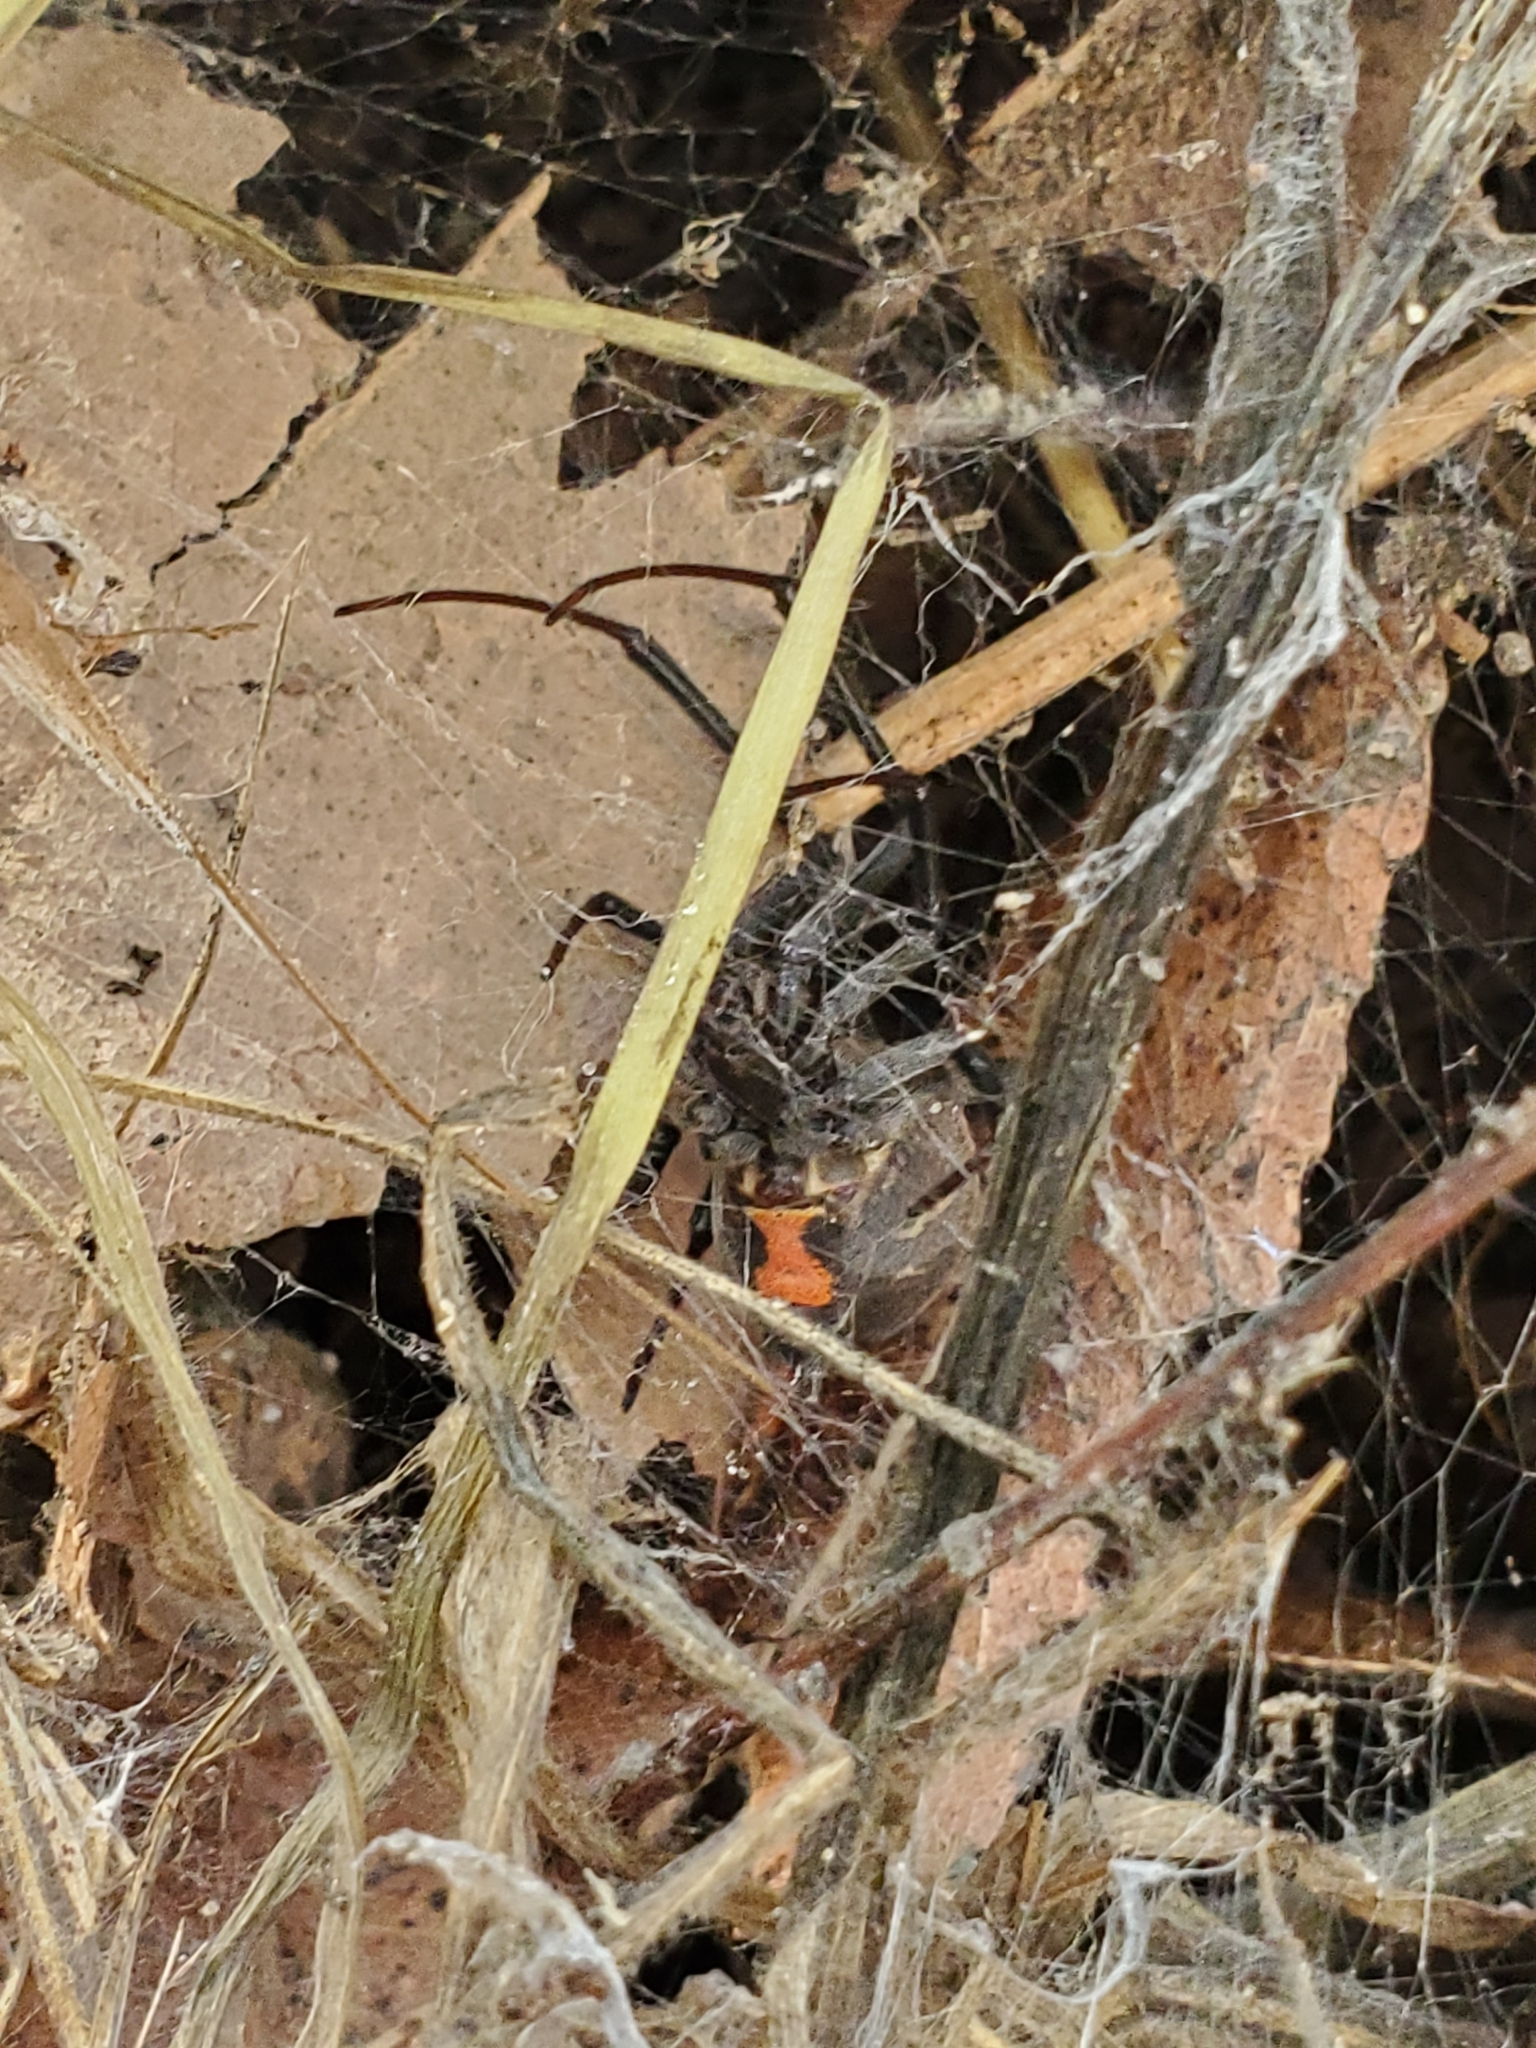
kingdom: Animalia
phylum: Arthropoda
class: Arachnida
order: Araneae
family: Theridiidae
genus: Latrodectus
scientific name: Latrodectus geometricus
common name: Brown widow spider
